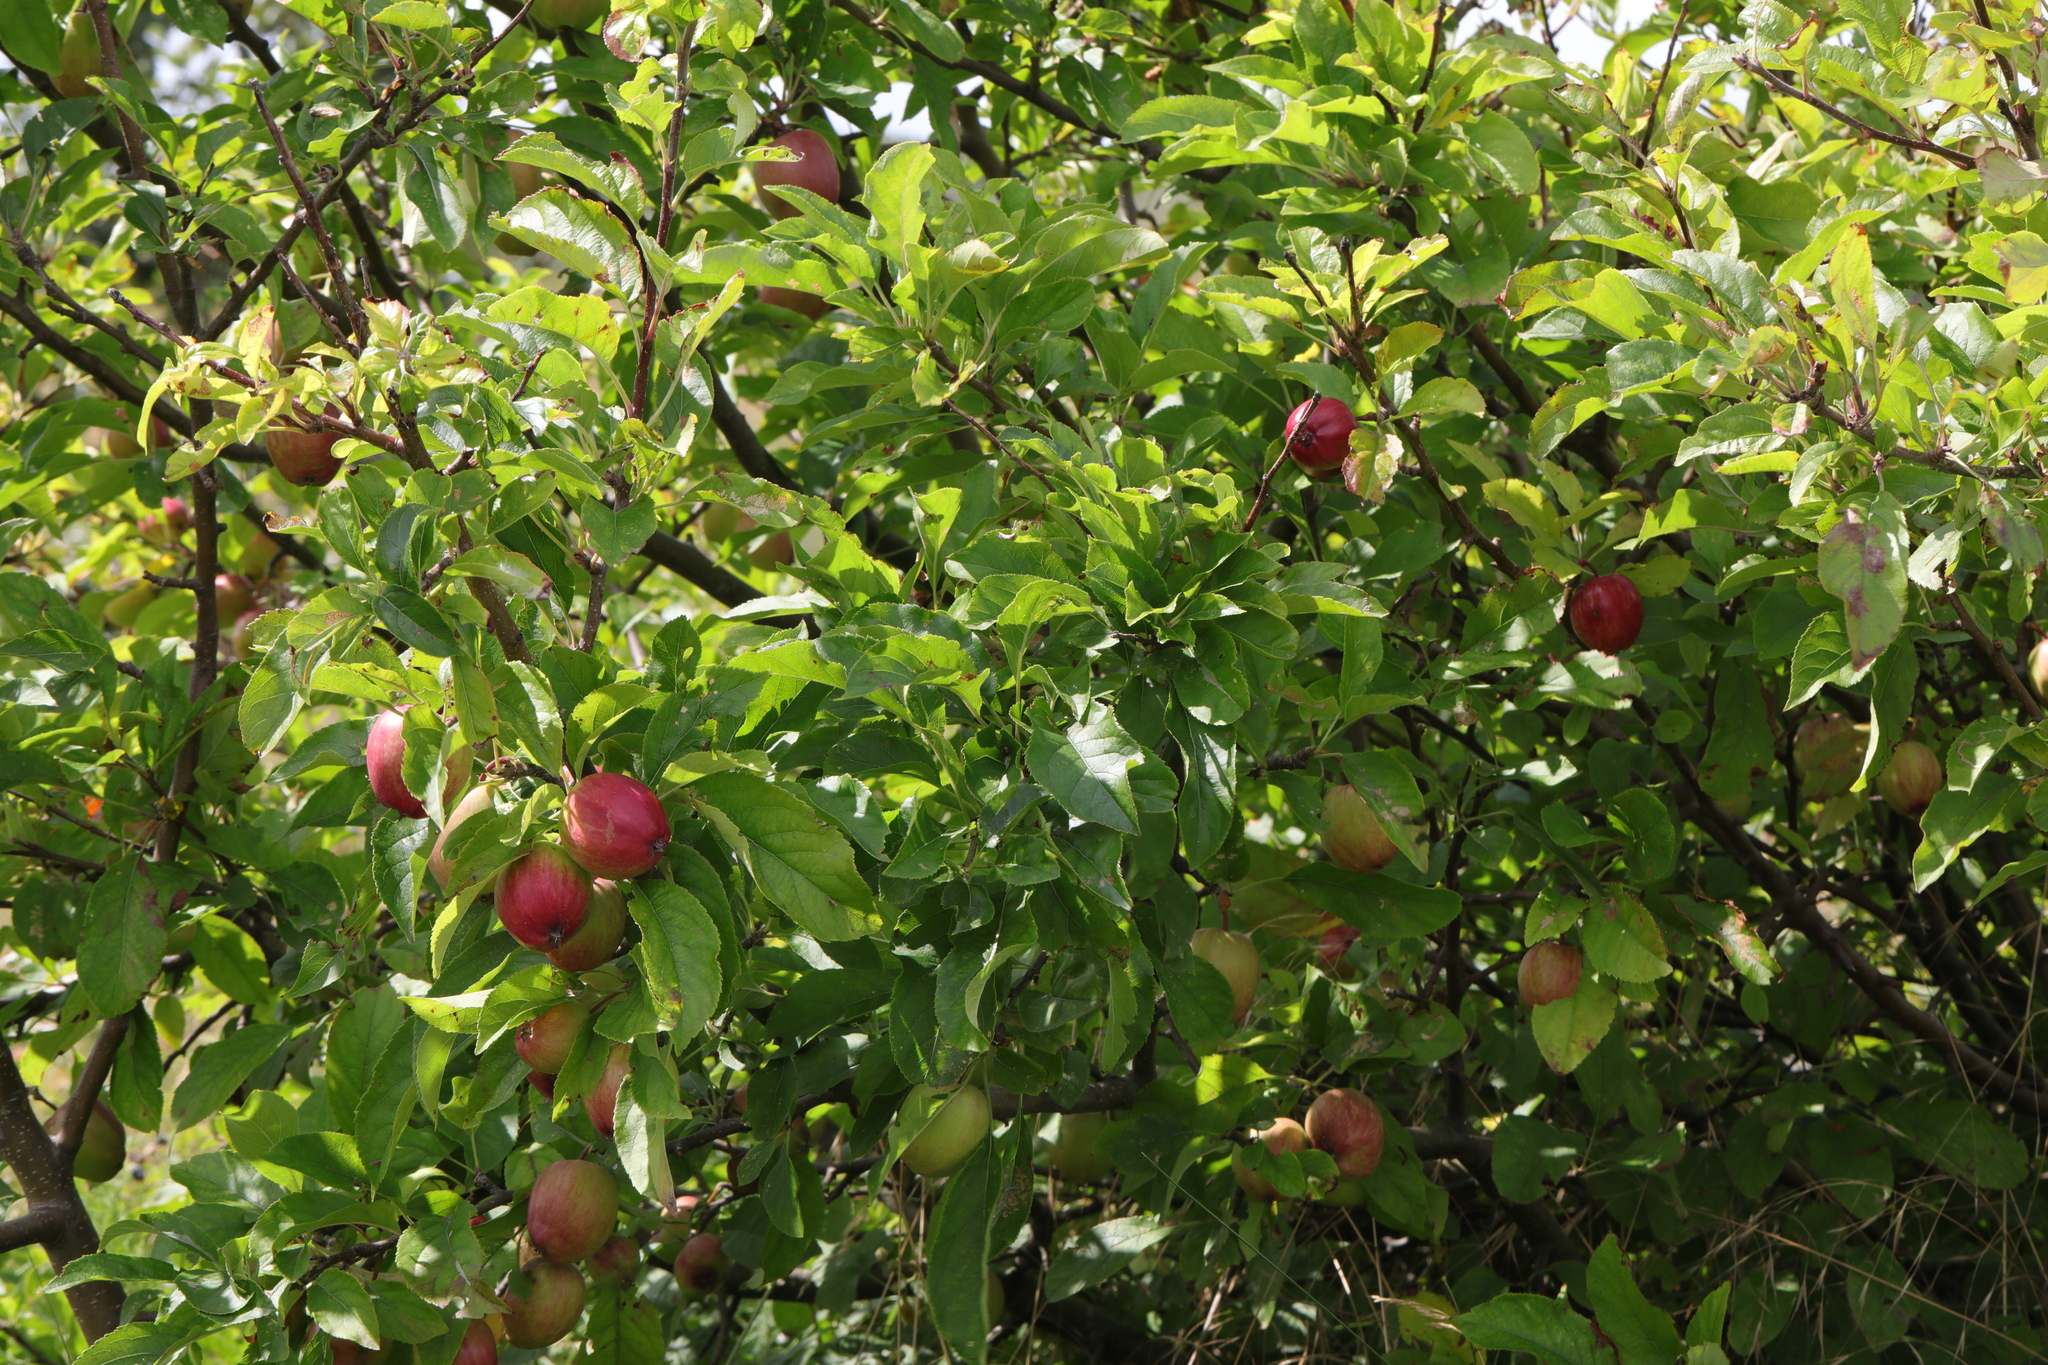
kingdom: Plantae
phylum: Tracheophyta
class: Magnoliopsida
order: Rosales
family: Rosaceae
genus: Malus
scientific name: Malus domestica
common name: Apple
